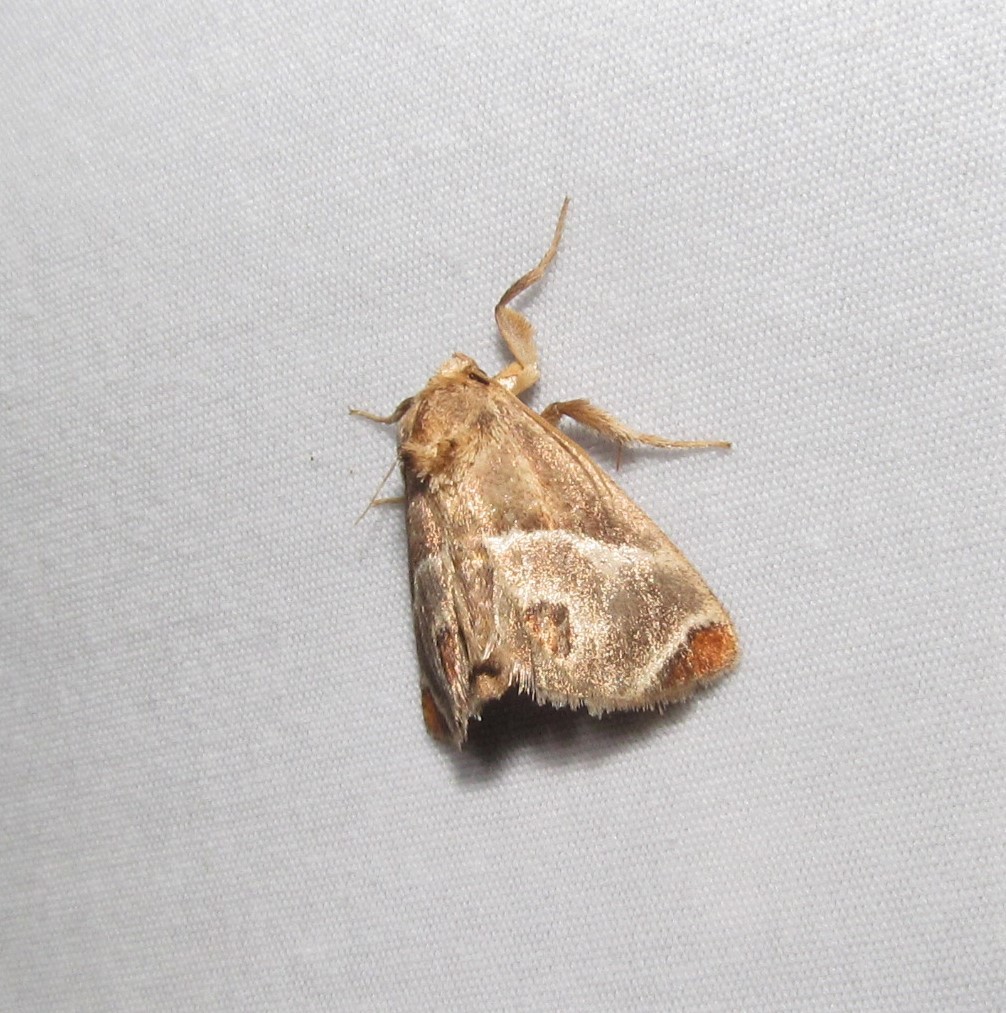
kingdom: Animalia
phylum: Arthropoda
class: Insecta
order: Lepidoptera
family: Limacodidae
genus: Apoda
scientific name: Apoda biguttata
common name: Shagreened slug moth
